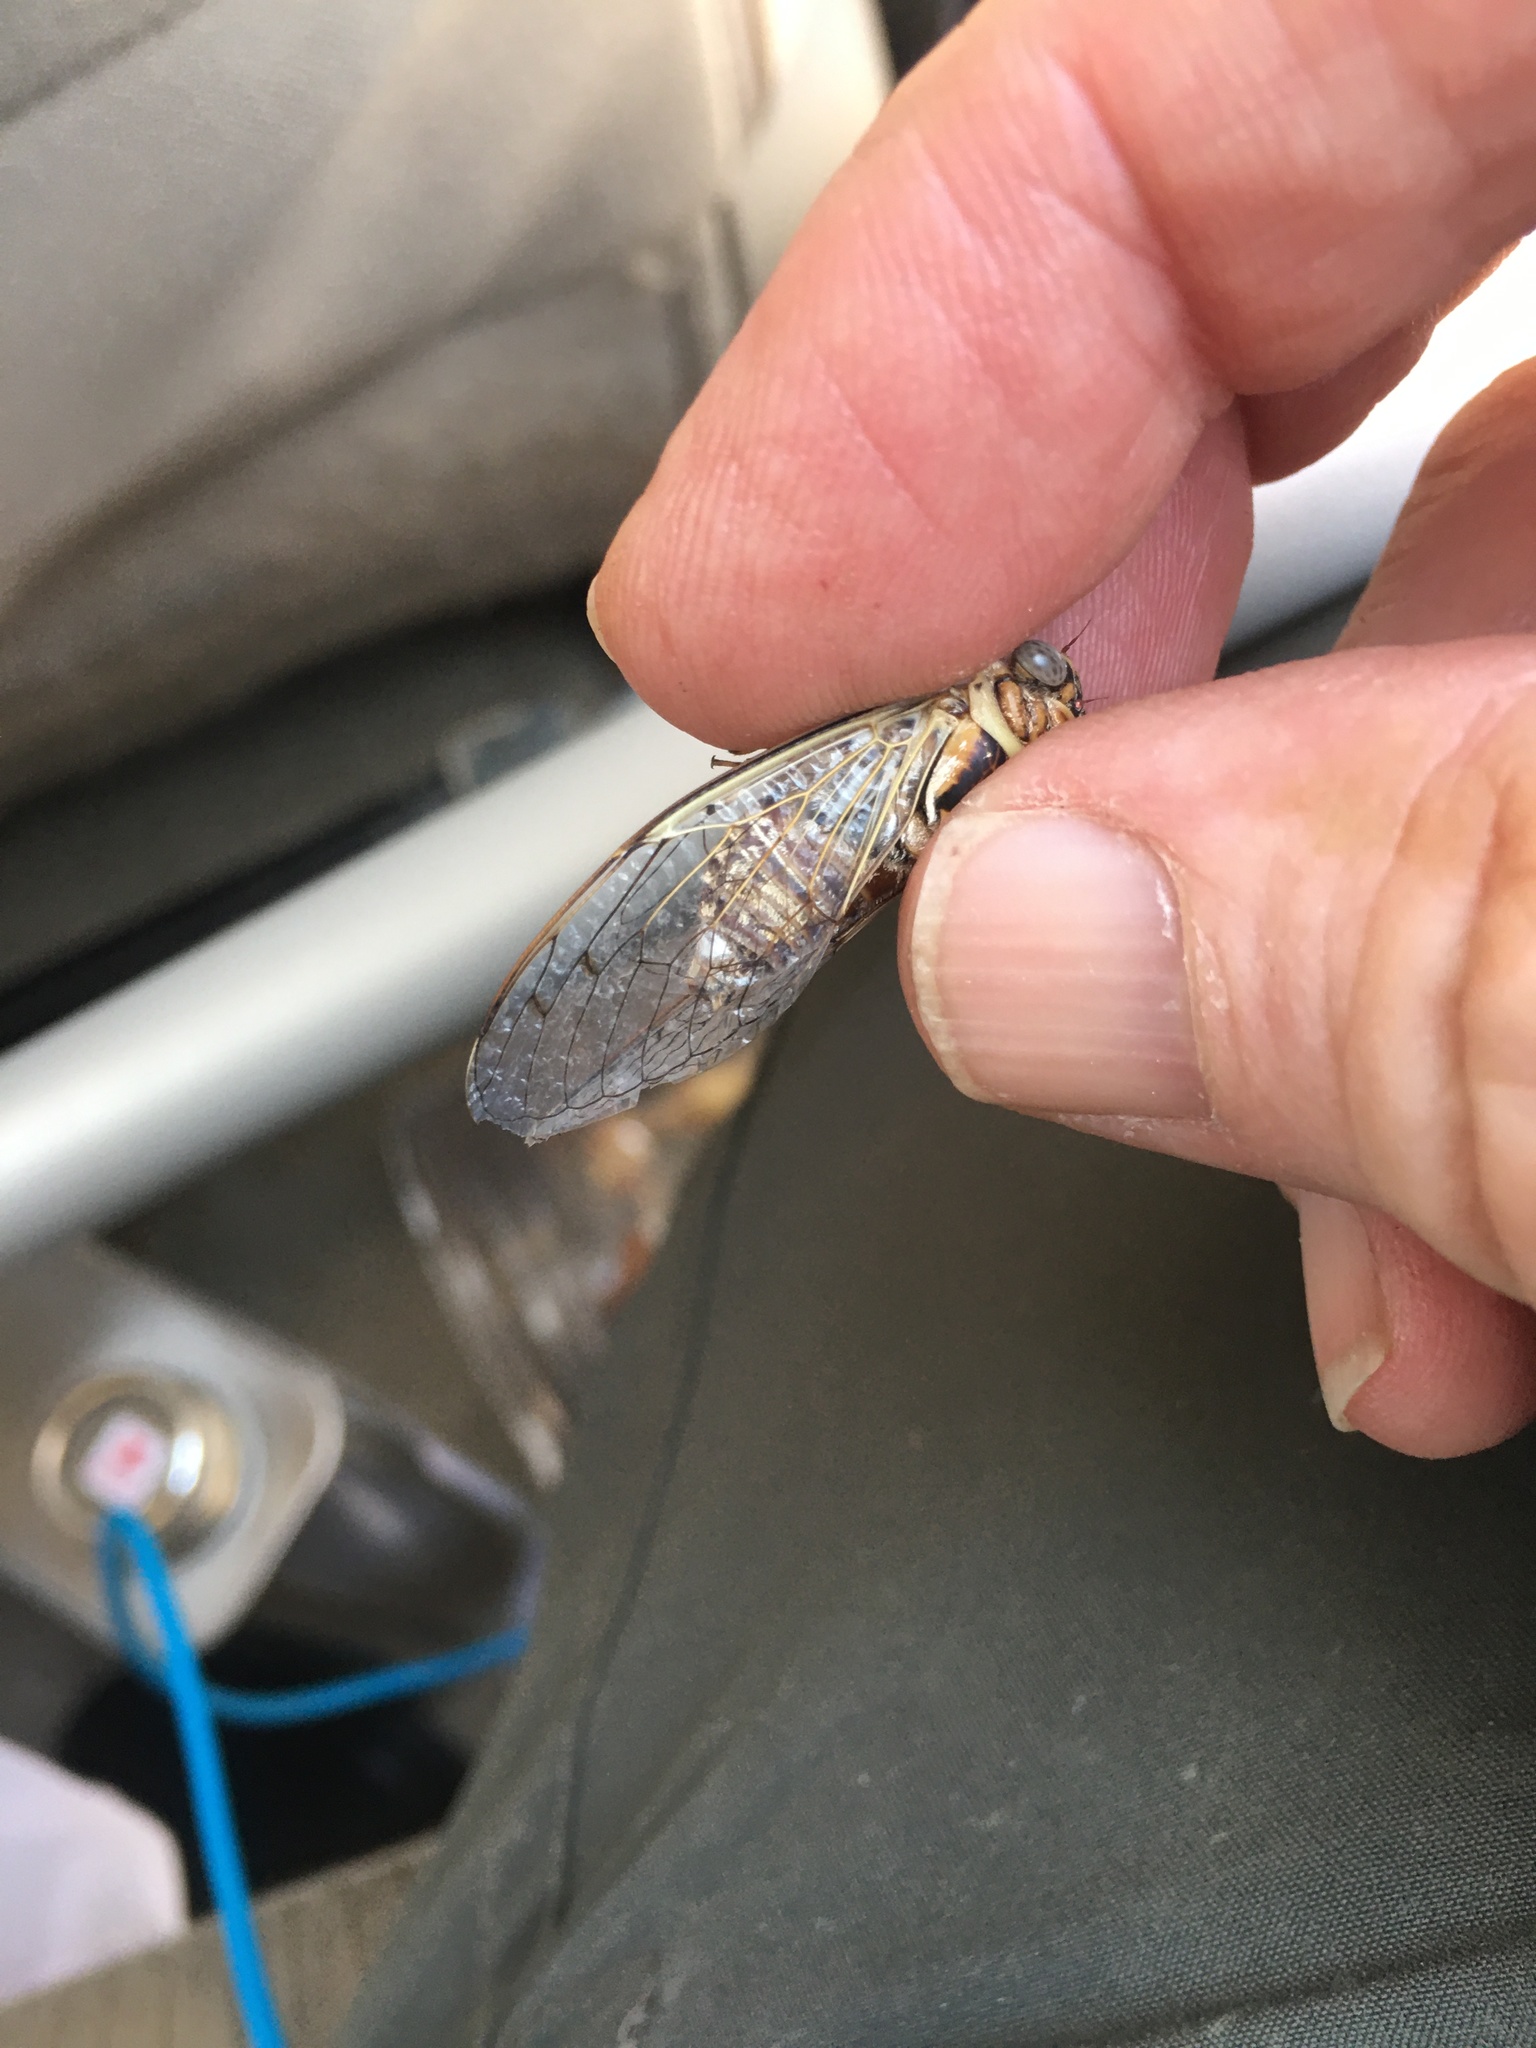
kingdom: Animalia
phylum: Arthropoda
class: Insecta
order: Hemiptera
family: Cicadidae
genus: Diceroprocta
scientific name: Diceroprocta texana
